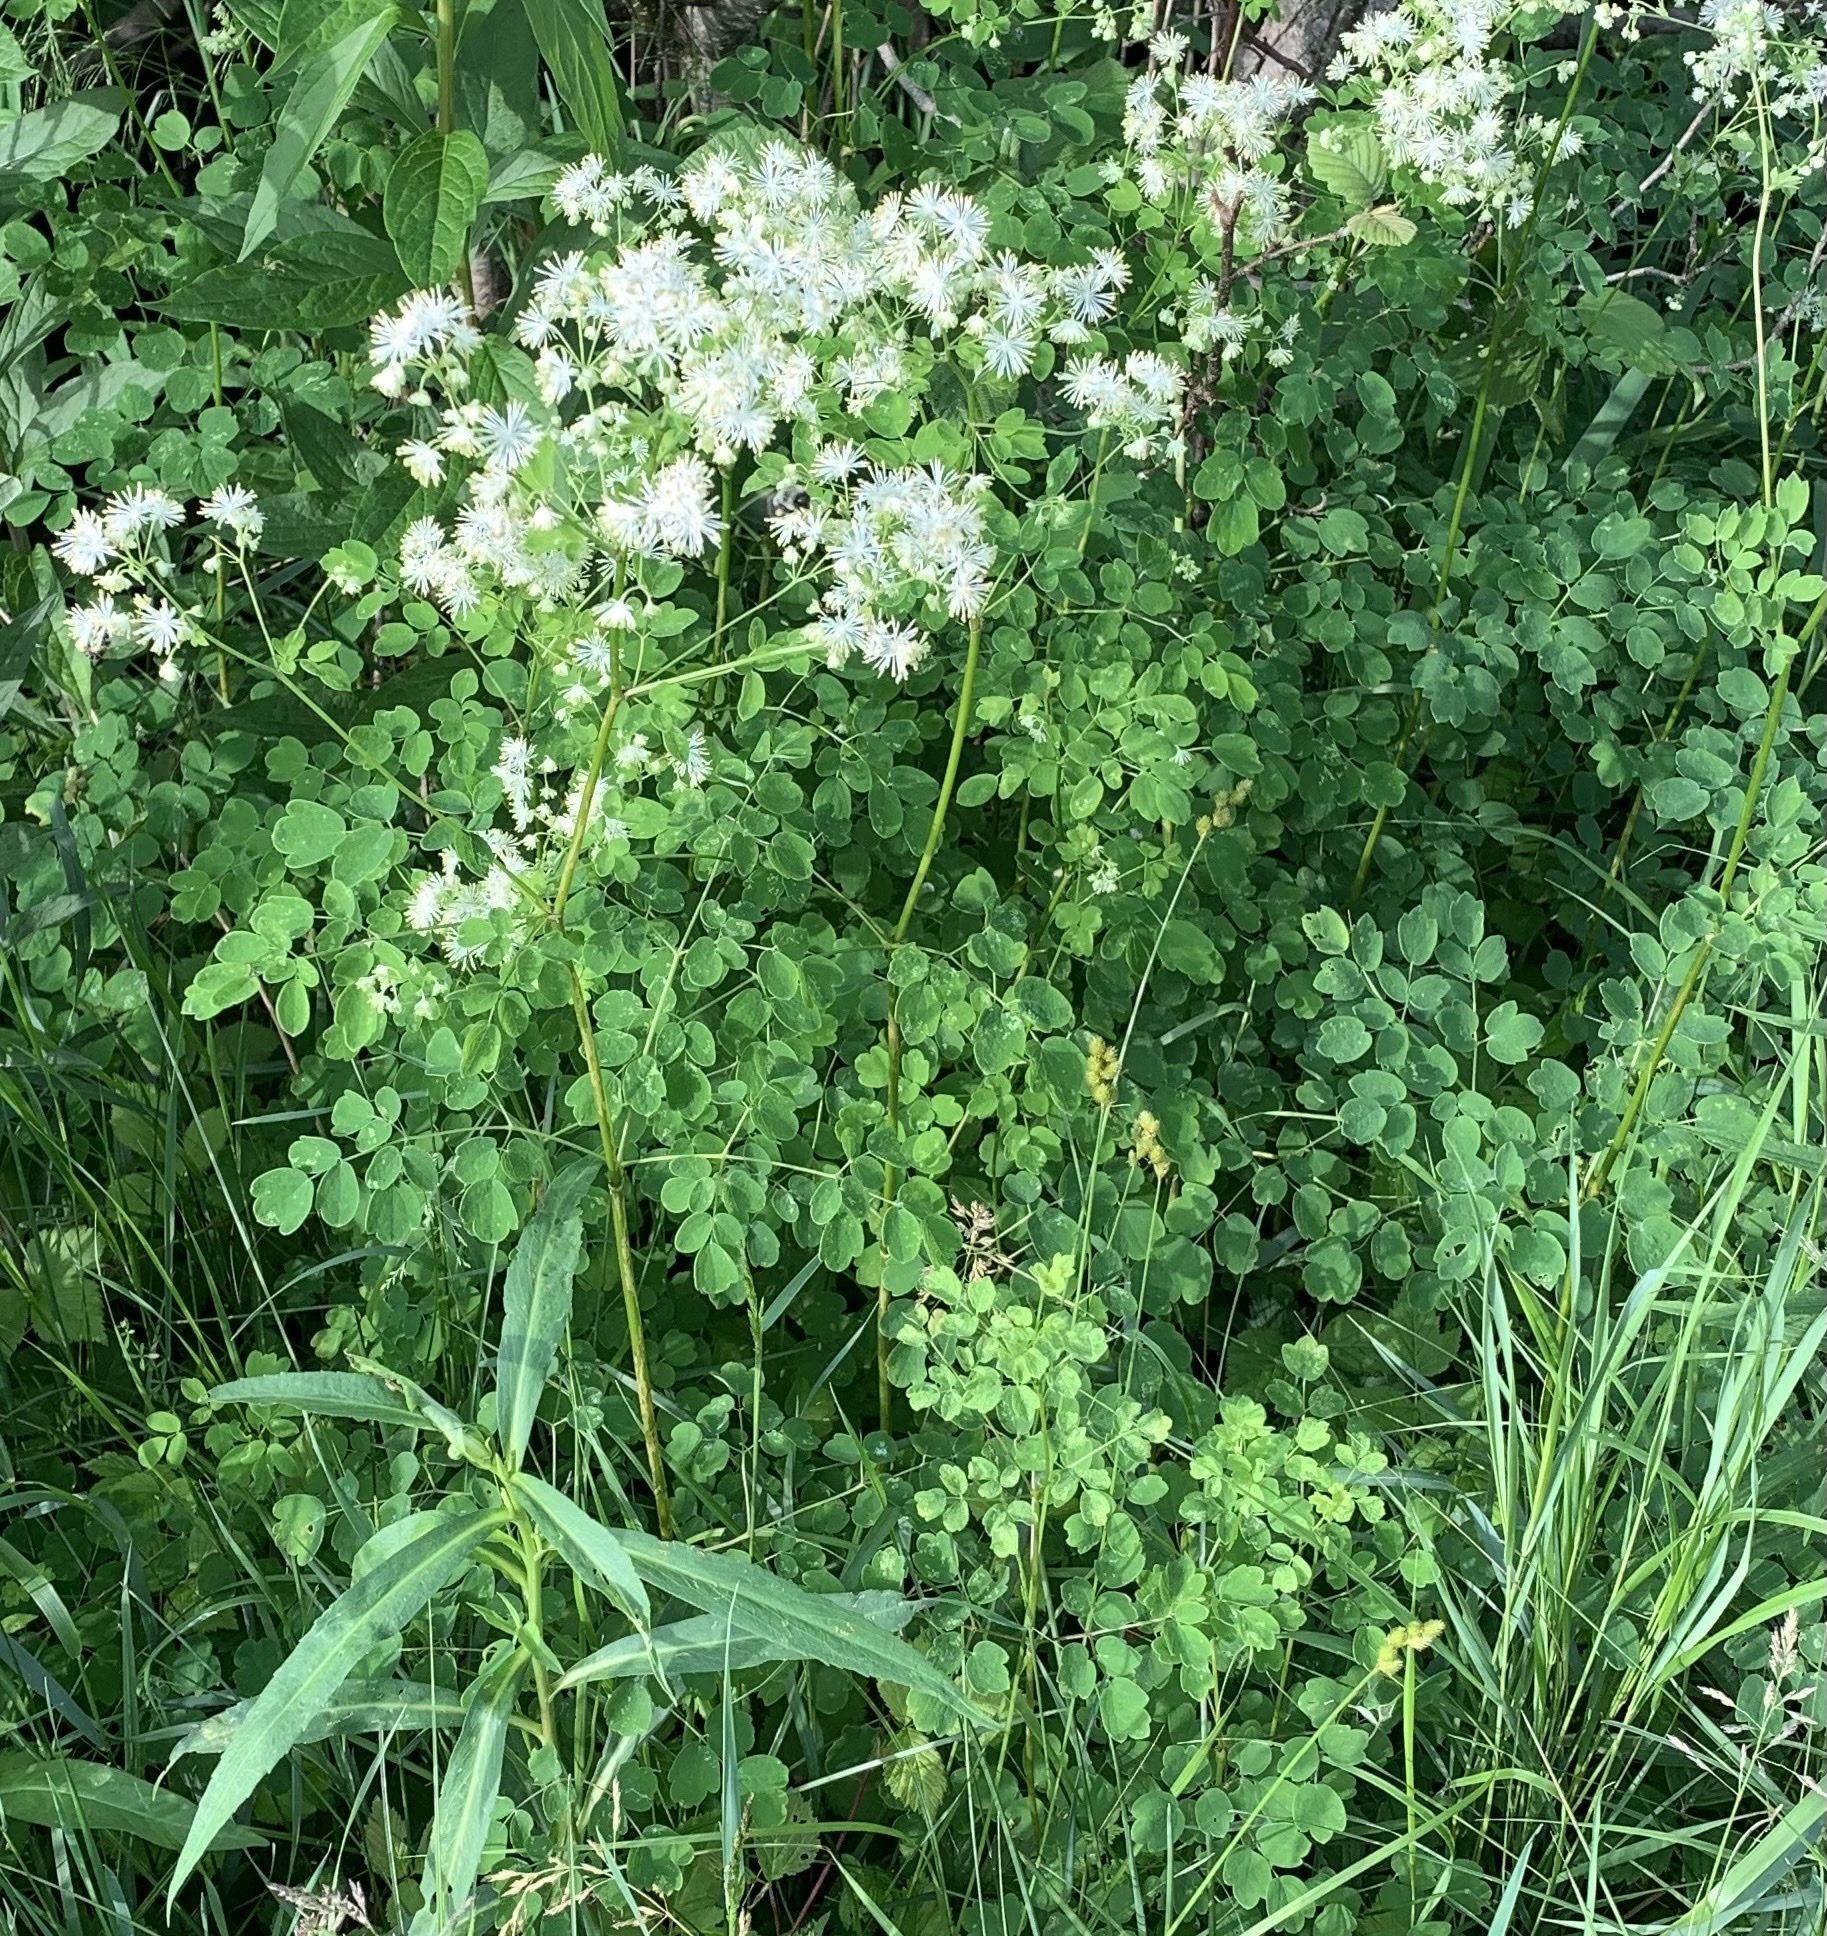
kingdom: Plantae
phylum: Tracheophyta
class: Magnoliopsida
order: Ranunculales
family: Ranunculaceae
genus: Thalictrum
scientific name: Thalictrum pubescens
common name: King-of-the-meadow
